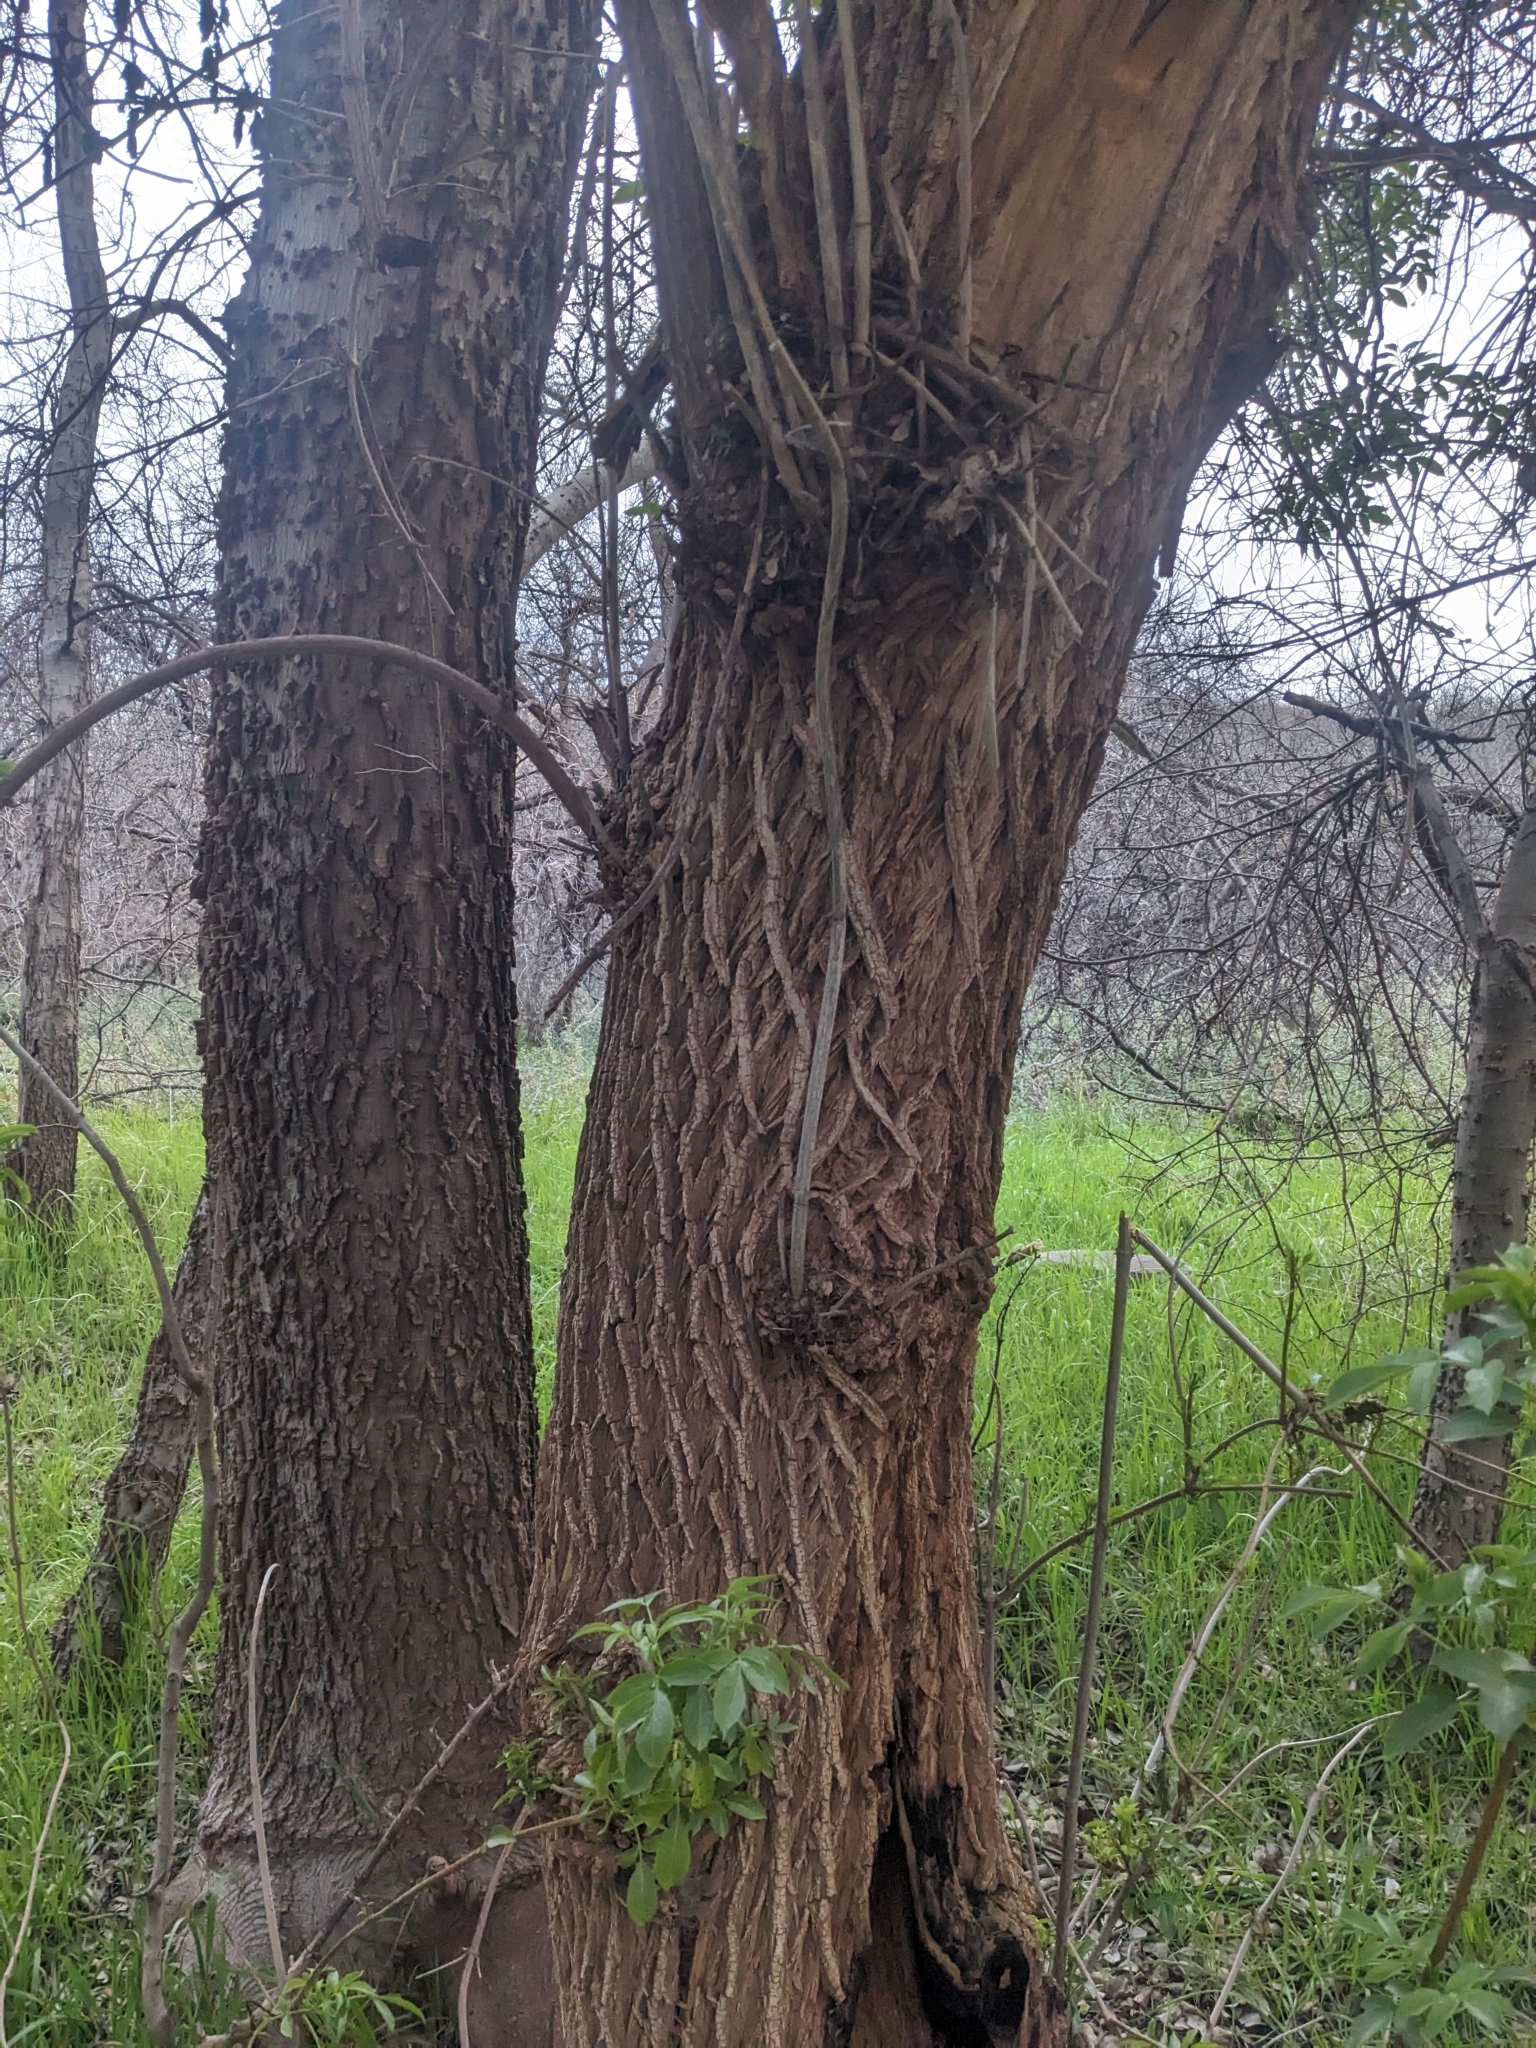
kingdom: Plantae
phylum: Tracheophyta
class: Magnoliopsida
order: Dipsacales
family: Viburnaceae
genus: Sambucus
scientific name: Sambucus cerulea
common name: Blue elder
